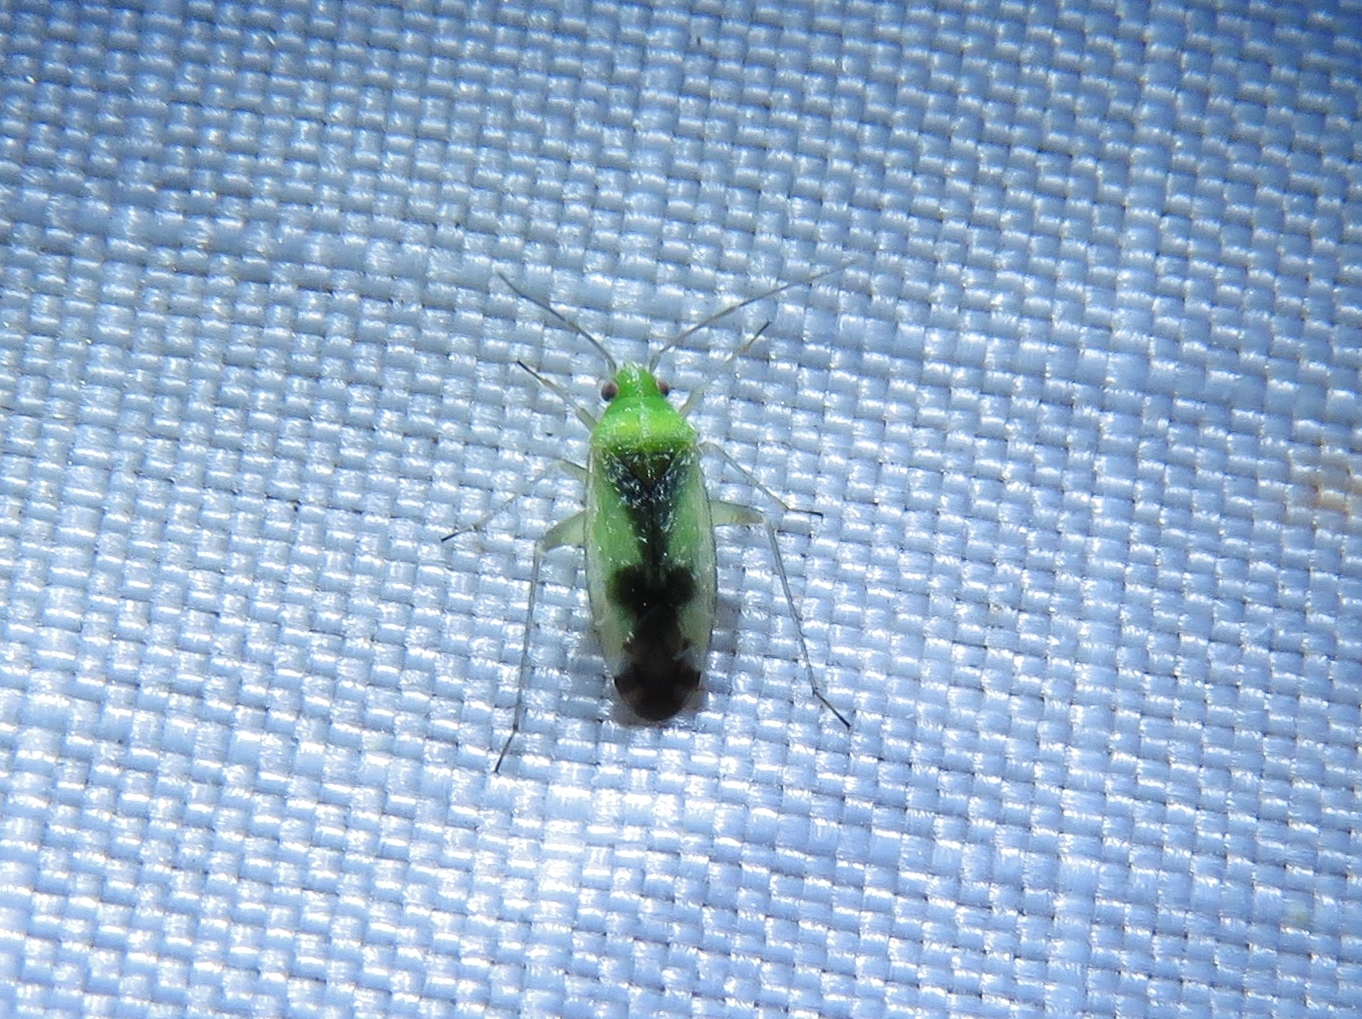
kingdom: Animalia
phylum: Arthropoda
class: Insecta
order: Hemiptera
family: Miridae
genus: Reuteroscopus
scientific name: Reuteroscopus ornatus
